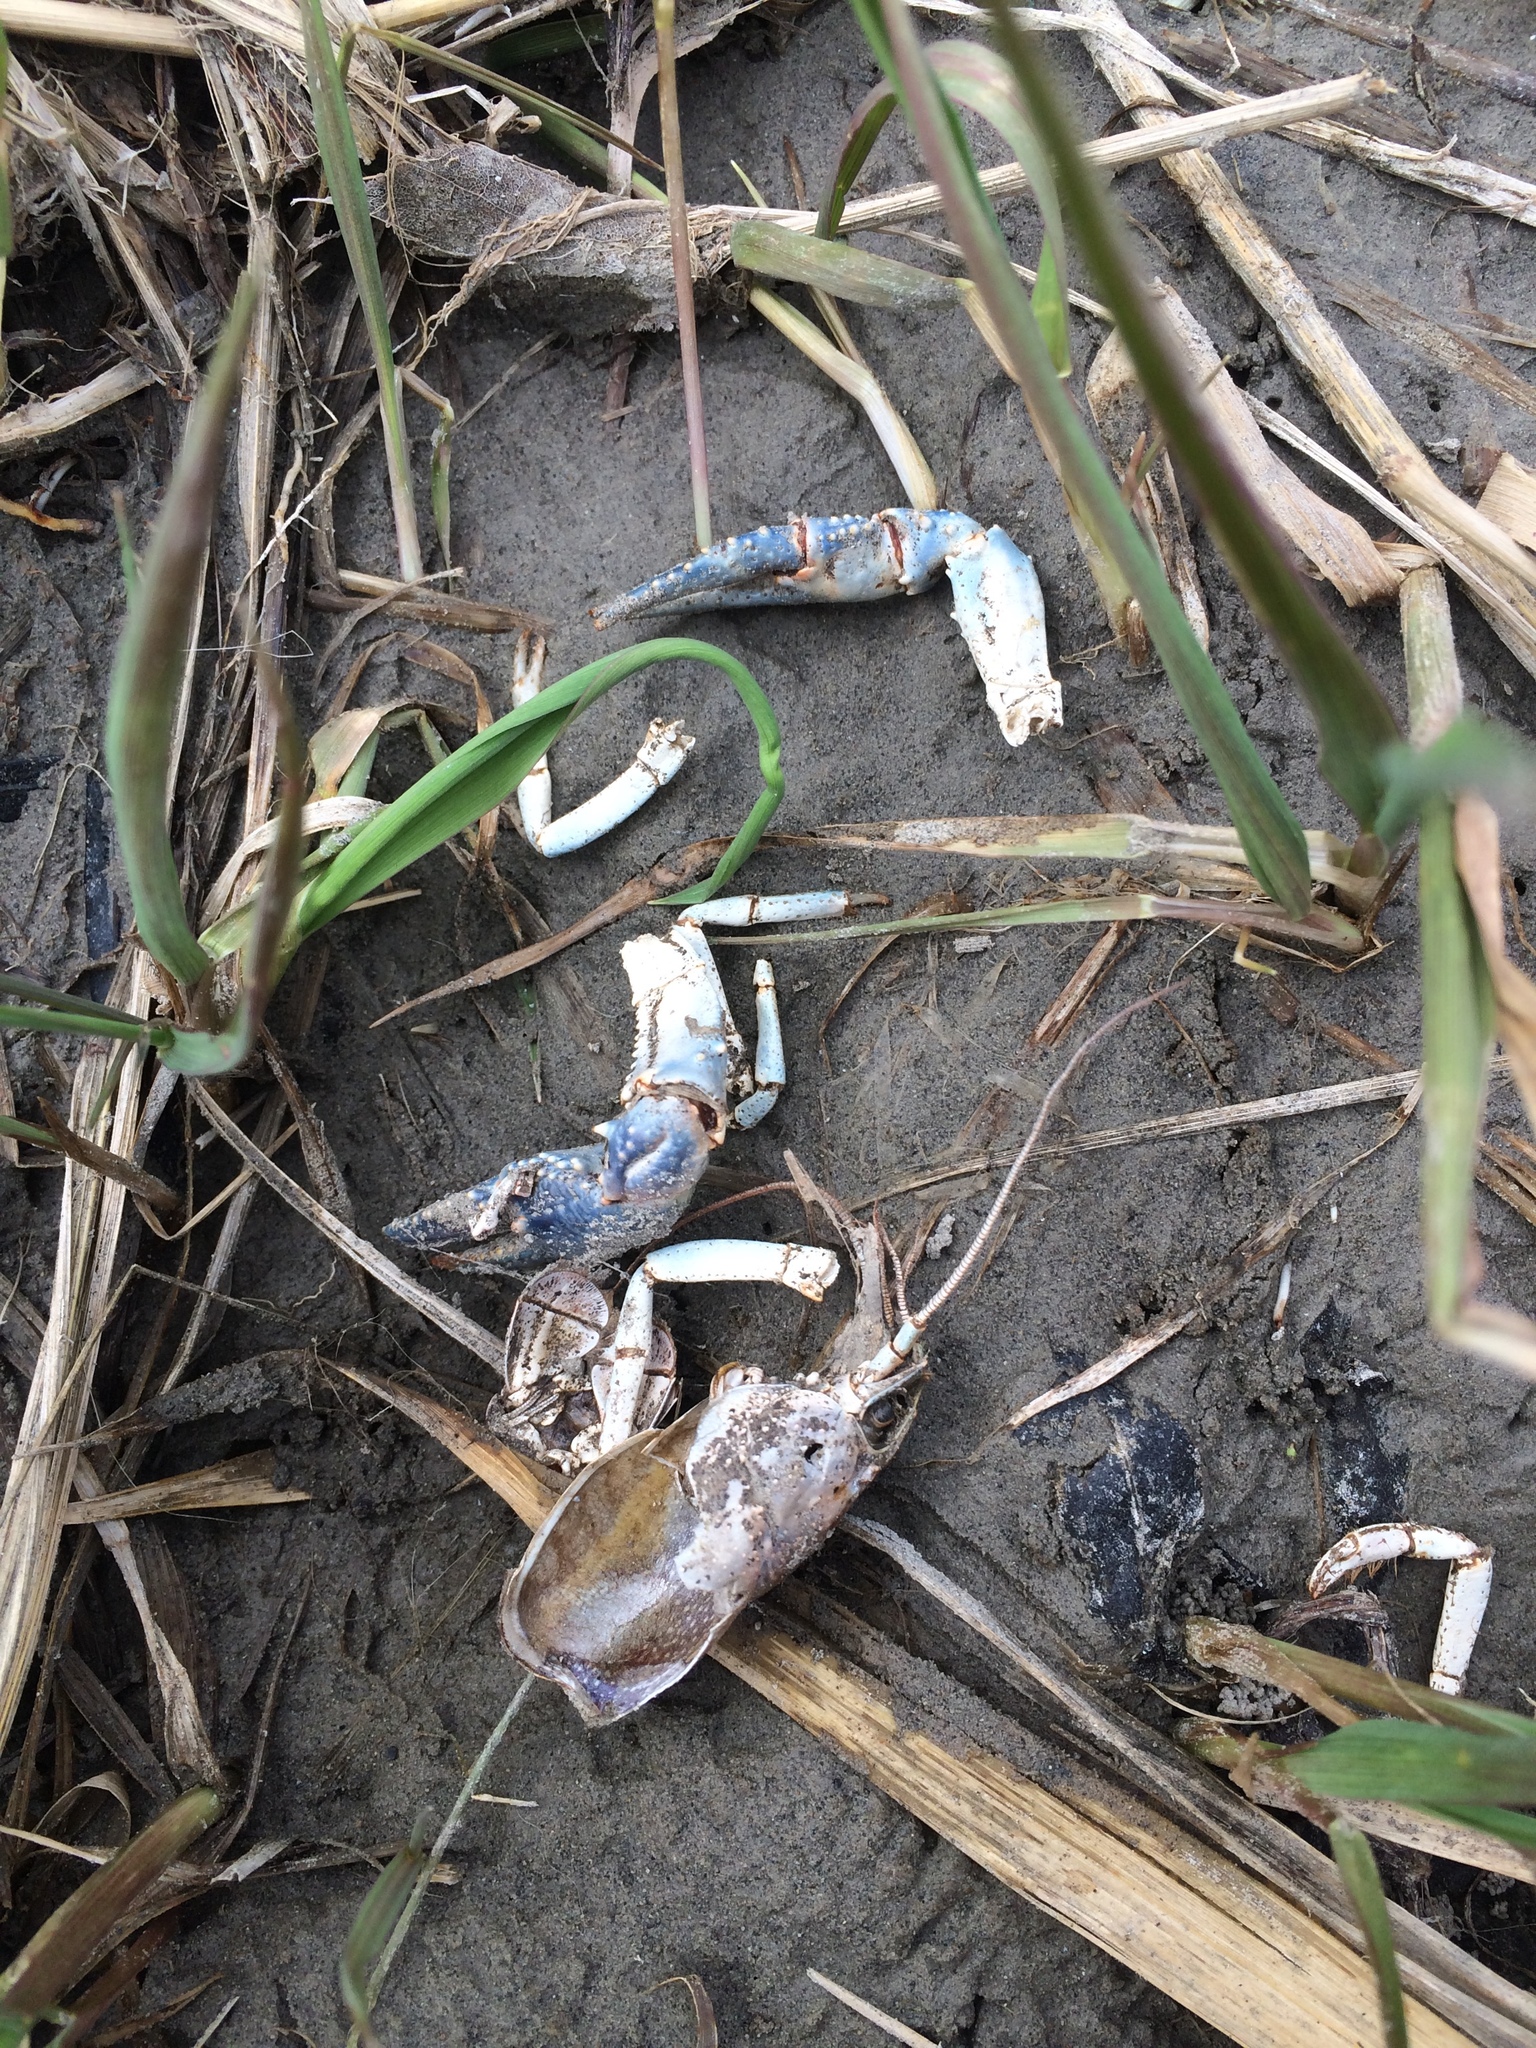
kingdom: Animalia
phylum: Chordata
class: Mammalia
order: Carnivora
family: Mustelidae
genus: Mustela
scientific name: Mustela
